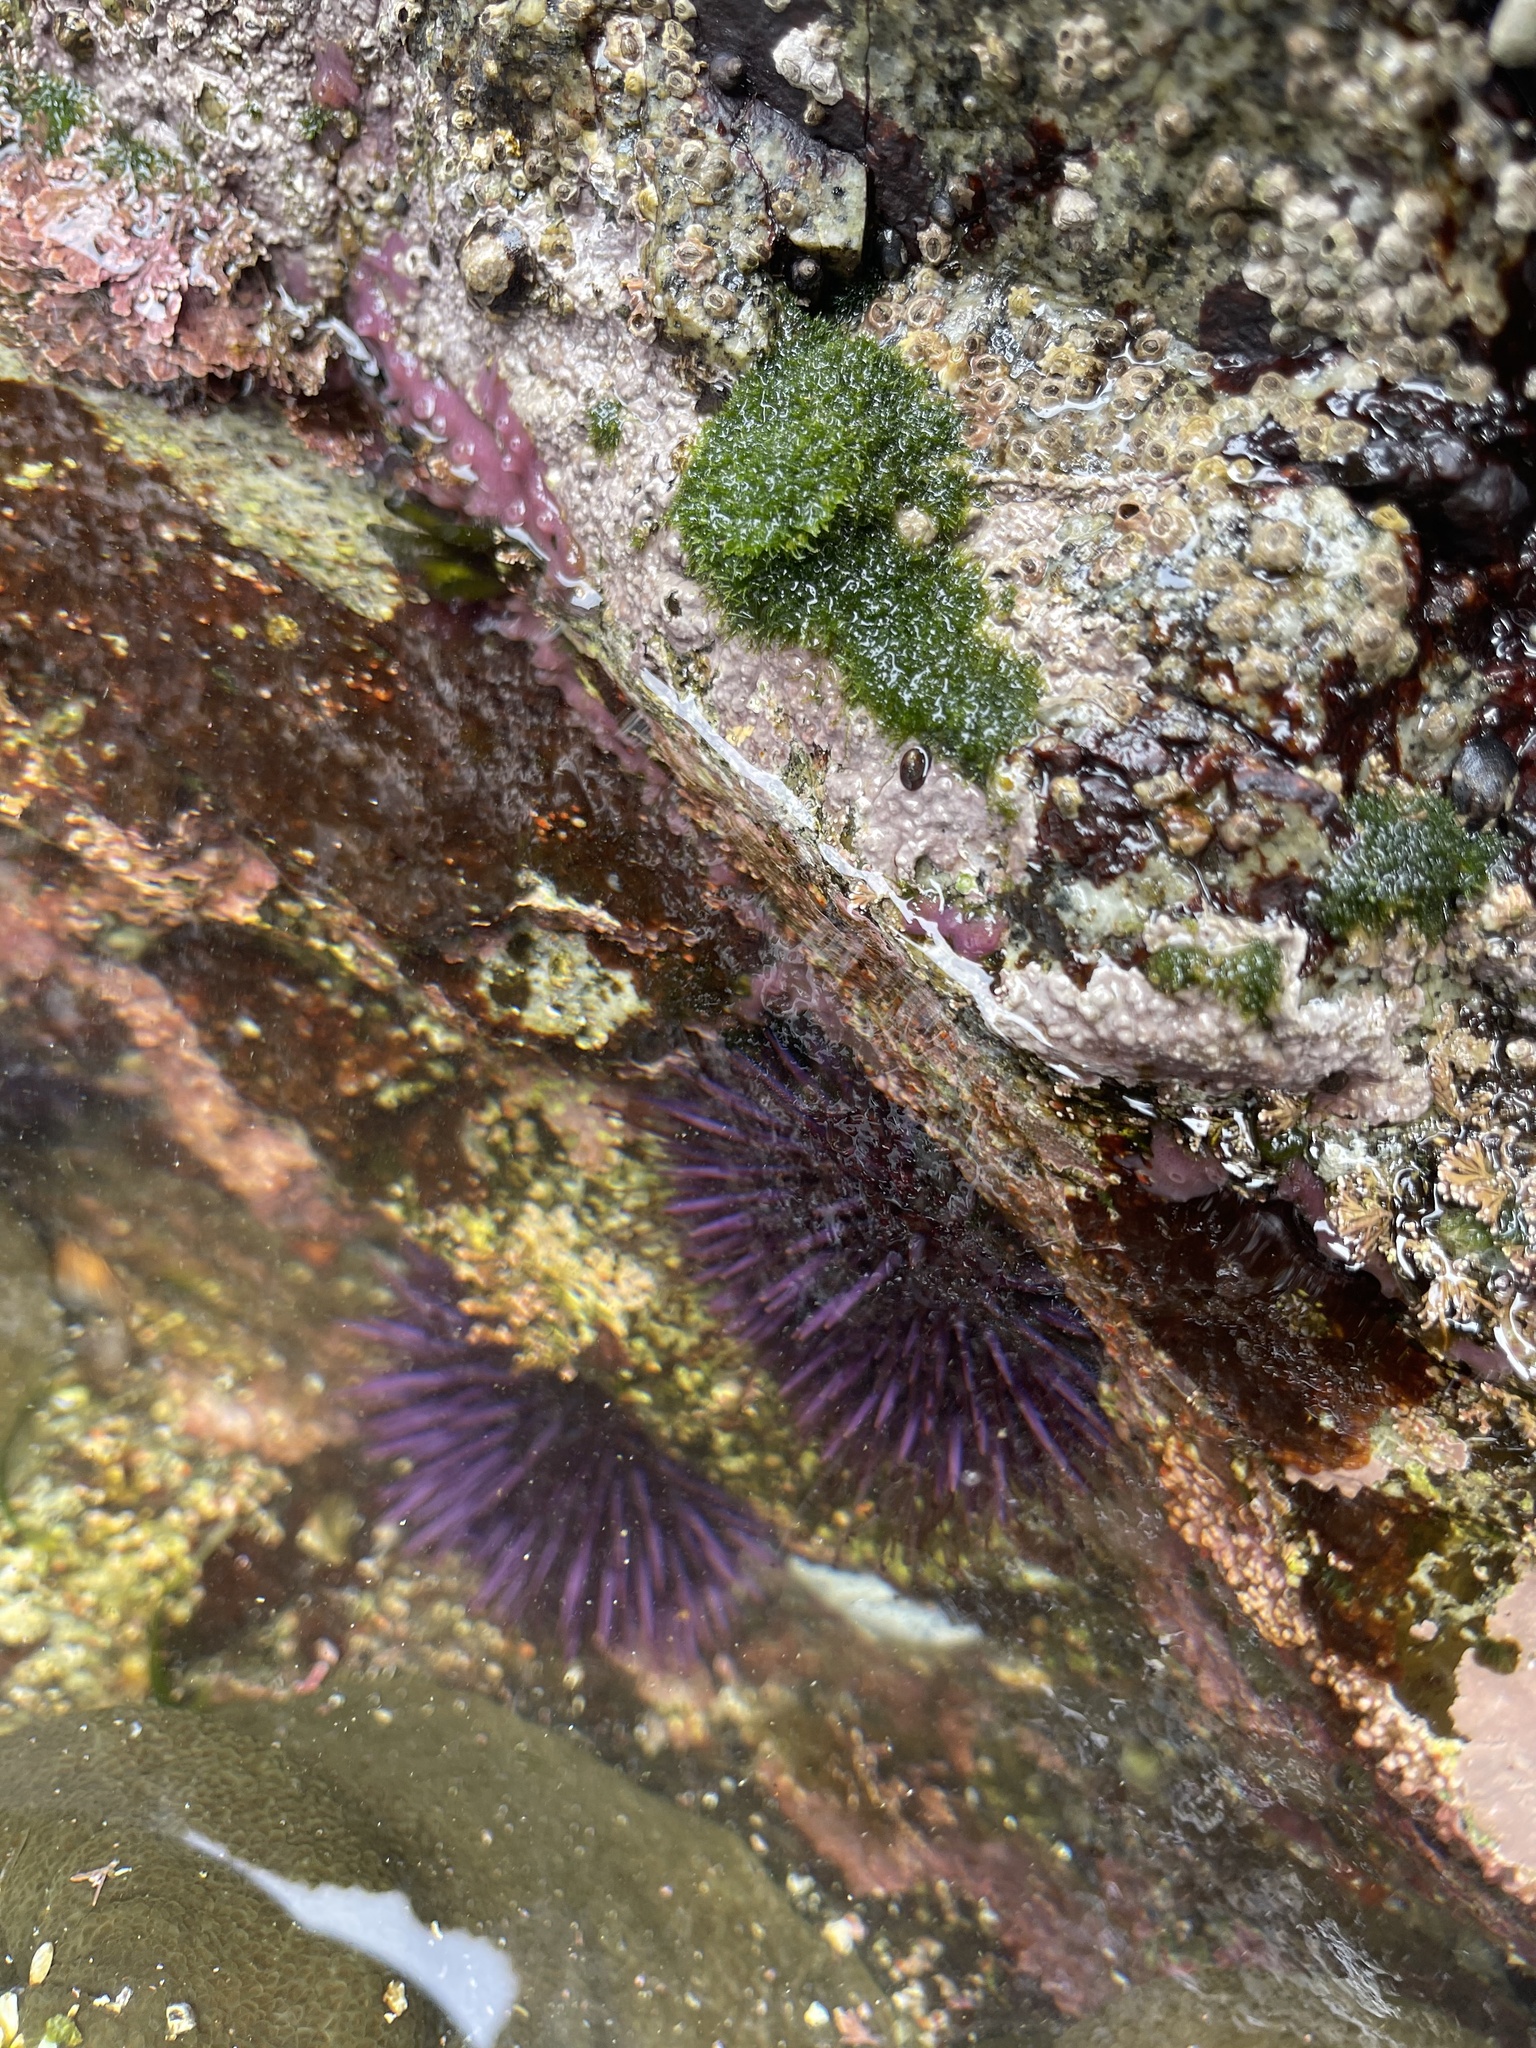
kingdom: Animalia
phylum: Echinodermata
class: Echinoidea
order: Camarodonta
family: Strongylocentrotidae
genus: Strongylocentrotus
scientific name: Strongylocentrotus purpuratus
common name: Purple sea urchin
